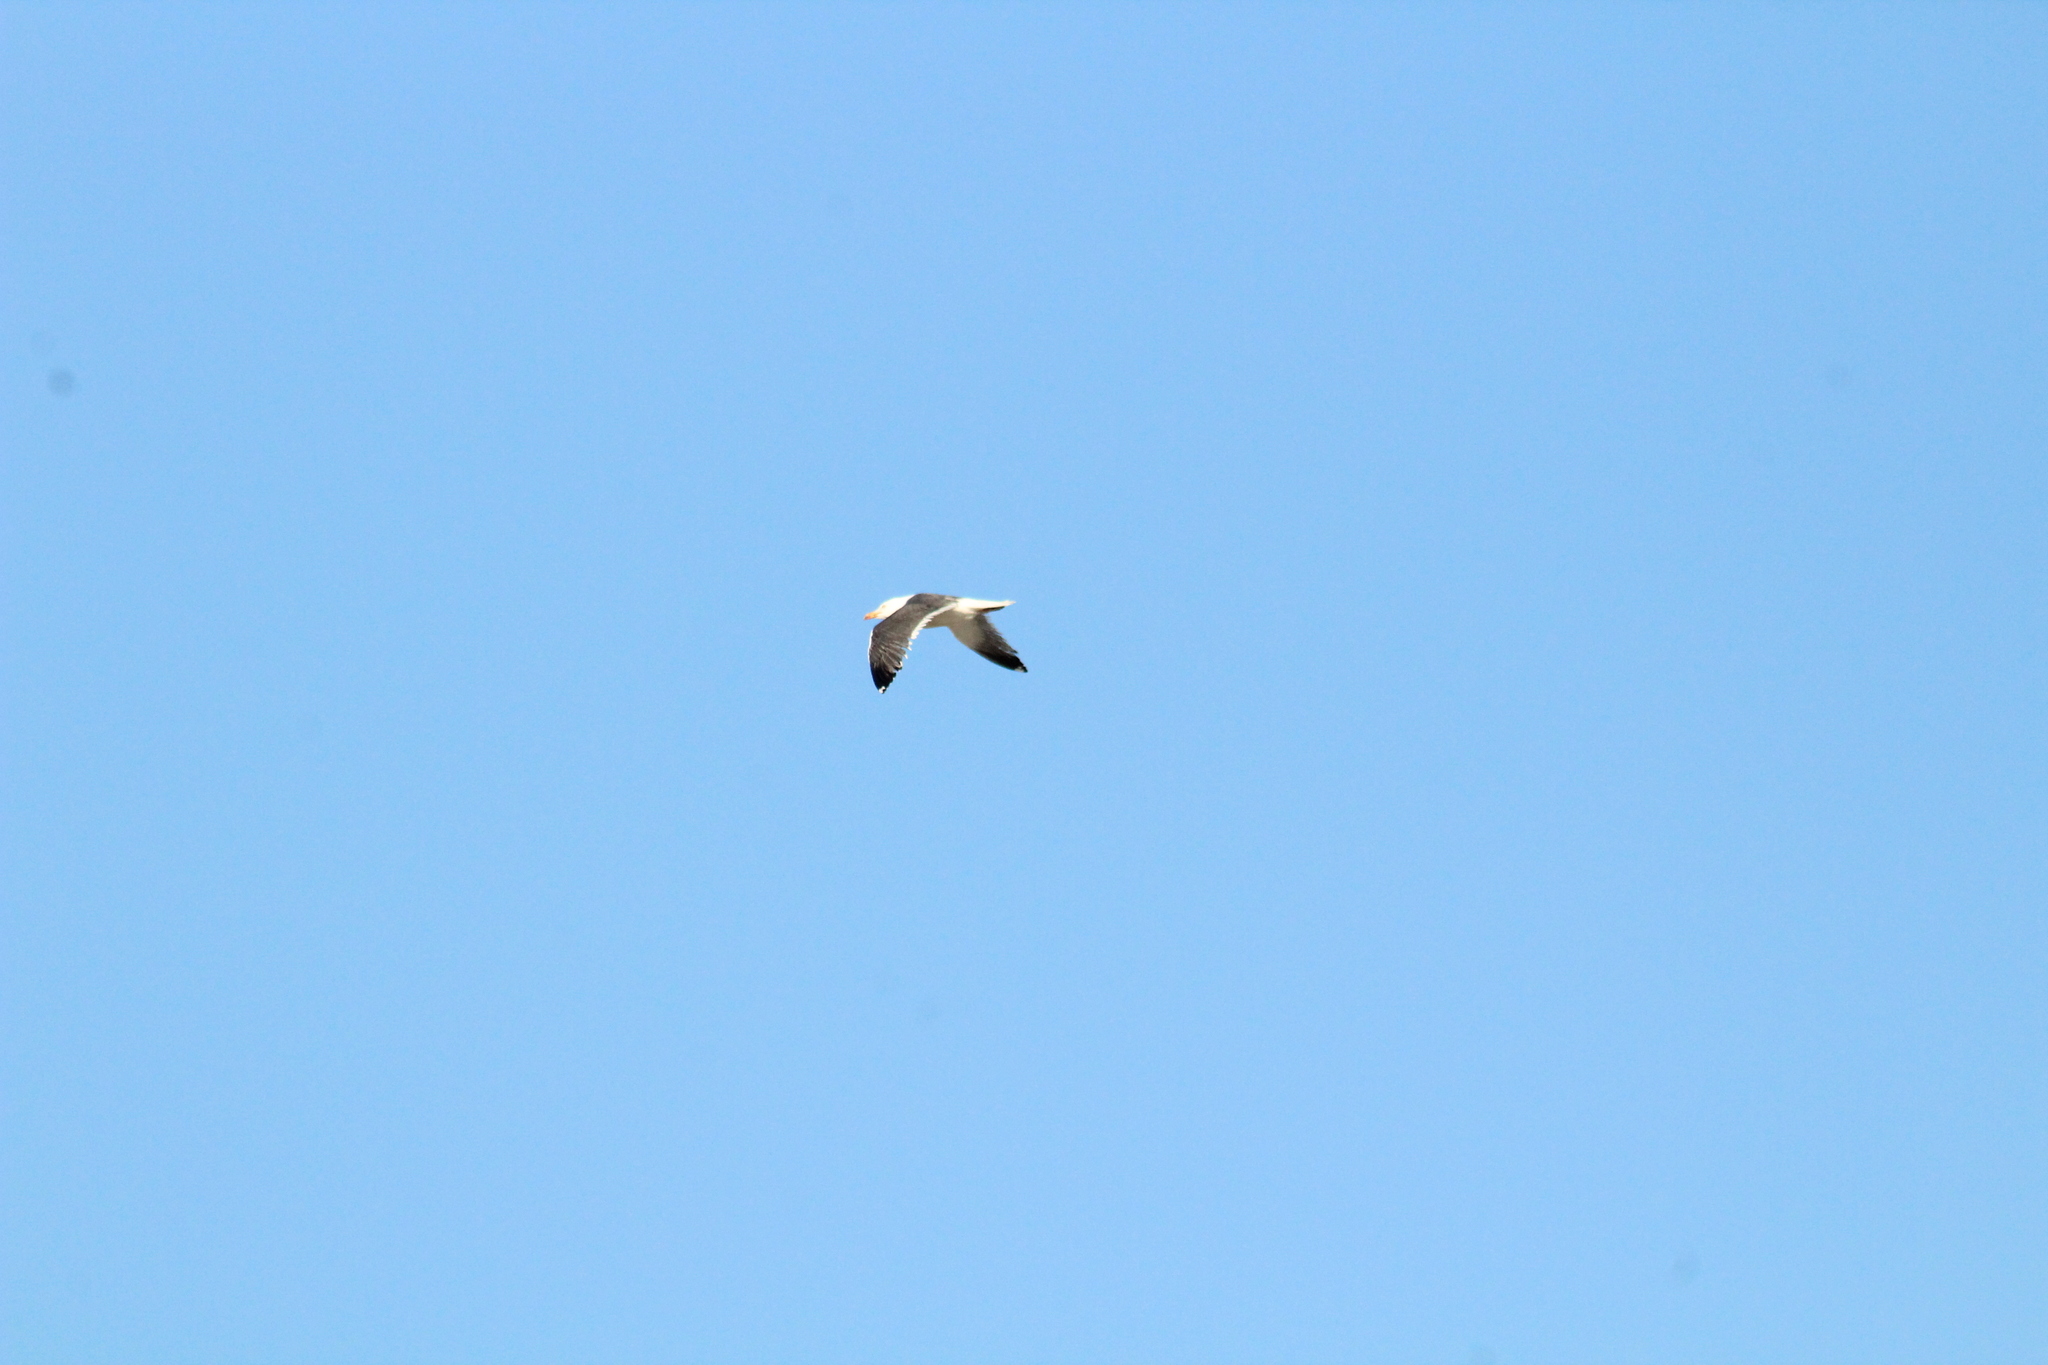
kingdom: Animalia
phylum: Chordata
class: Aves
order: Charadriiformes
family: Laridae
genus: Larus
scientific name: Larus fuscus
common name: Lesser black-backed gull
